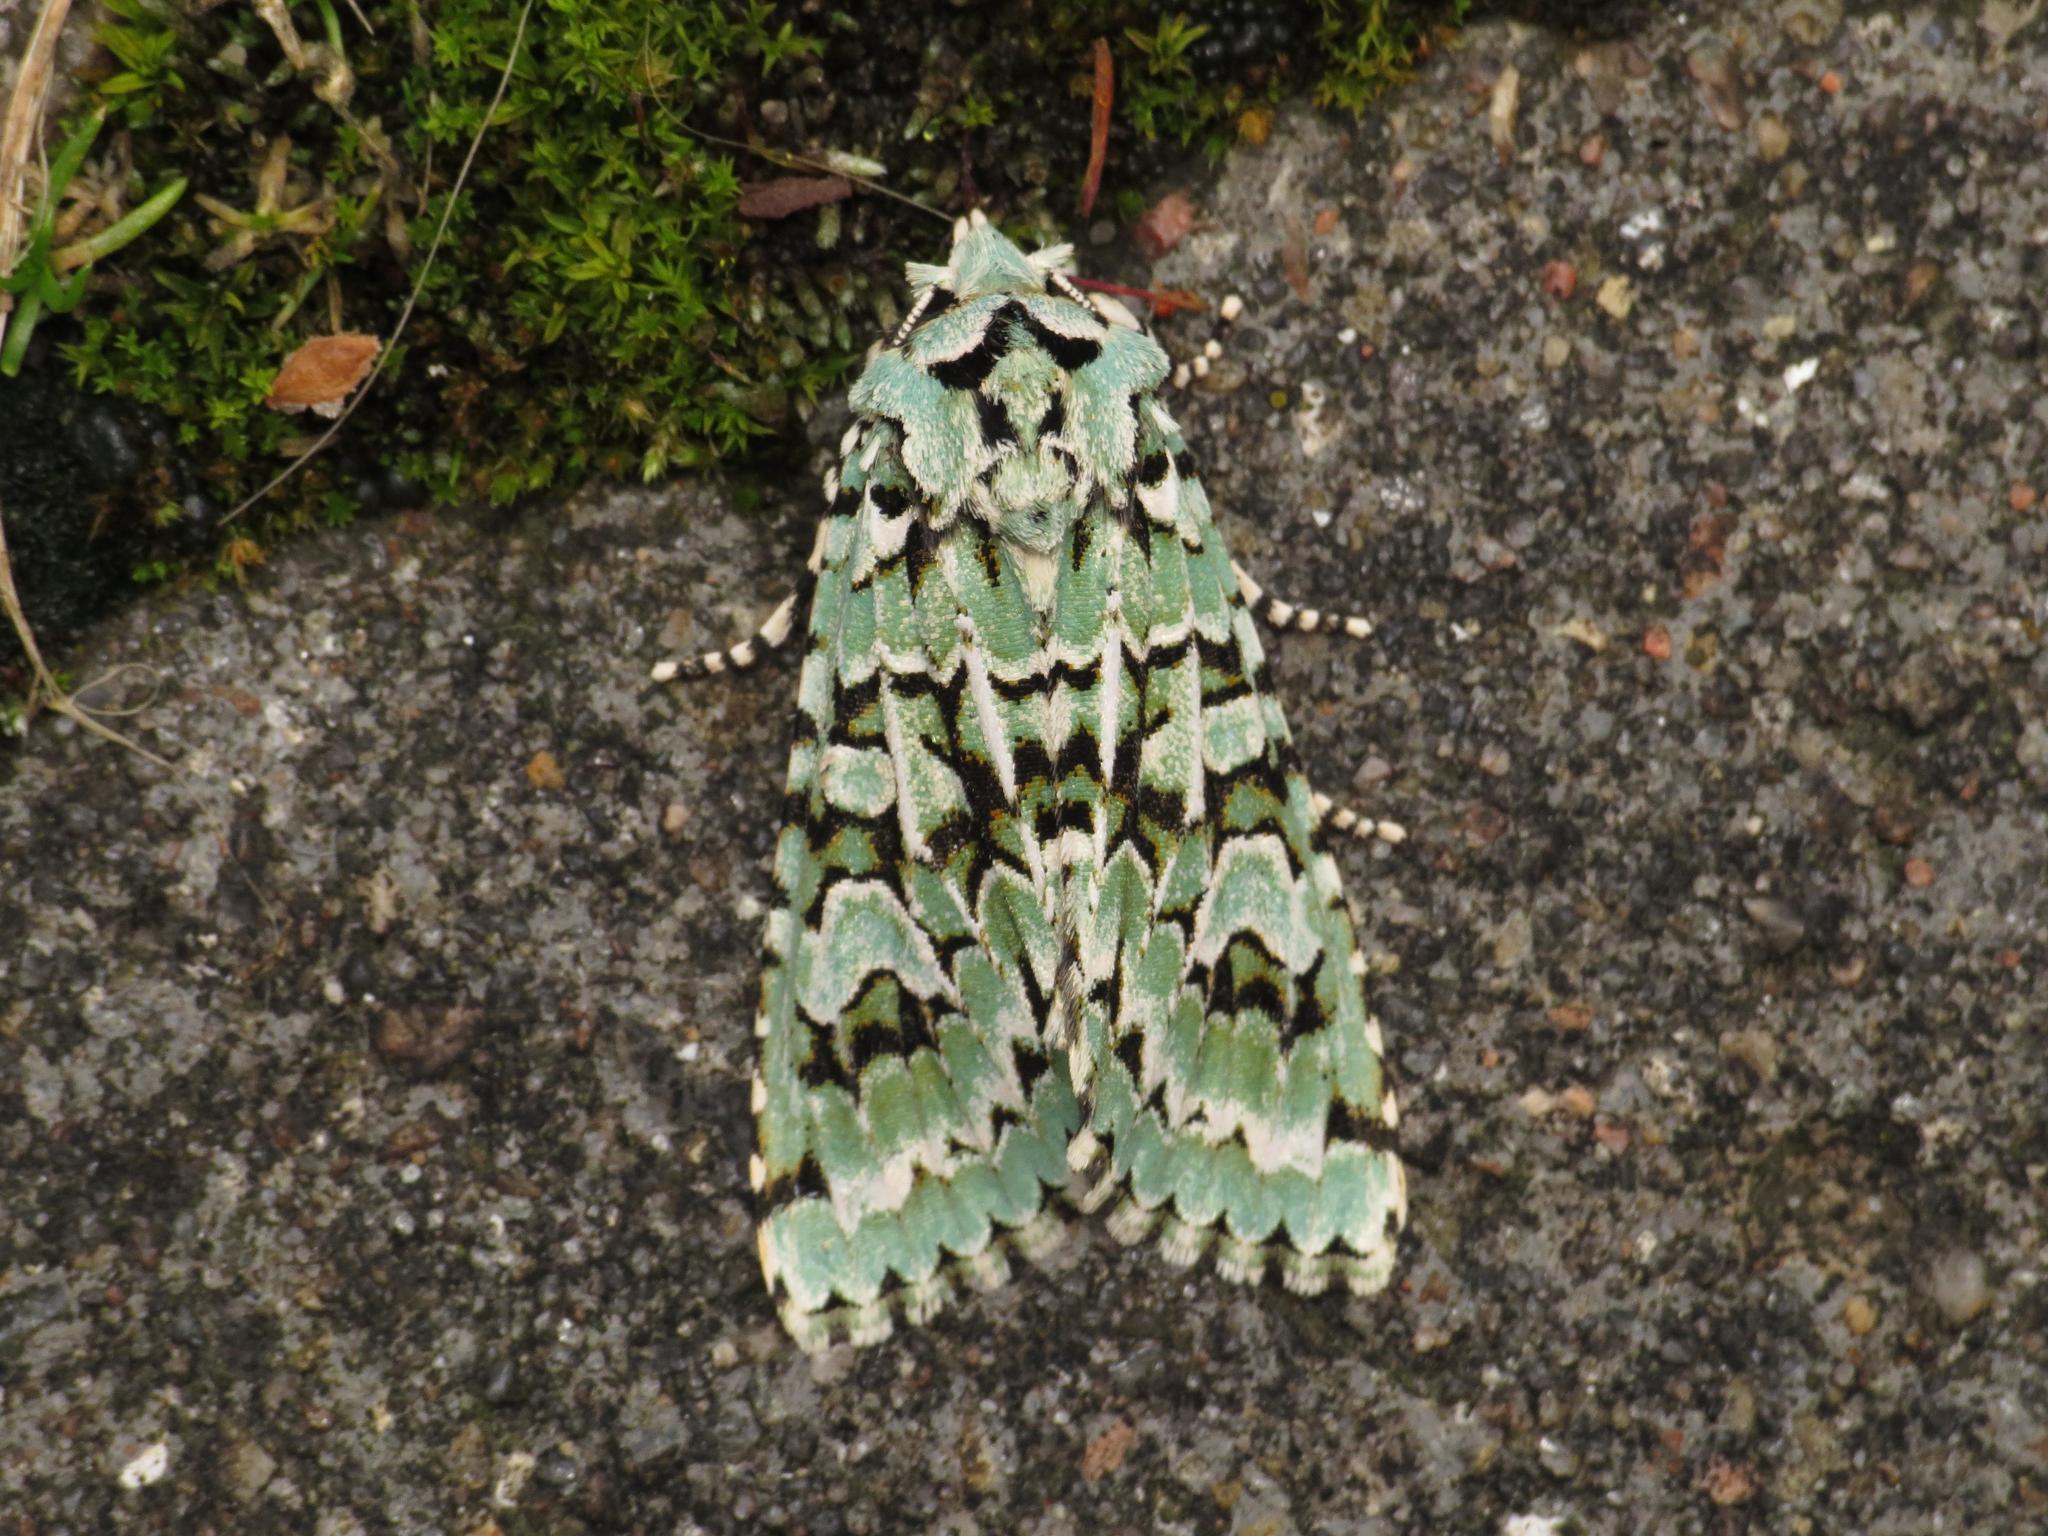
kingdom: Animalia
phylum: Arthropoda
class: Insecta
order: Lepidoptera
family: Noctuidae
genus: Griposia
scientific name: Griposia aprilina
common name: Merveille du jour
